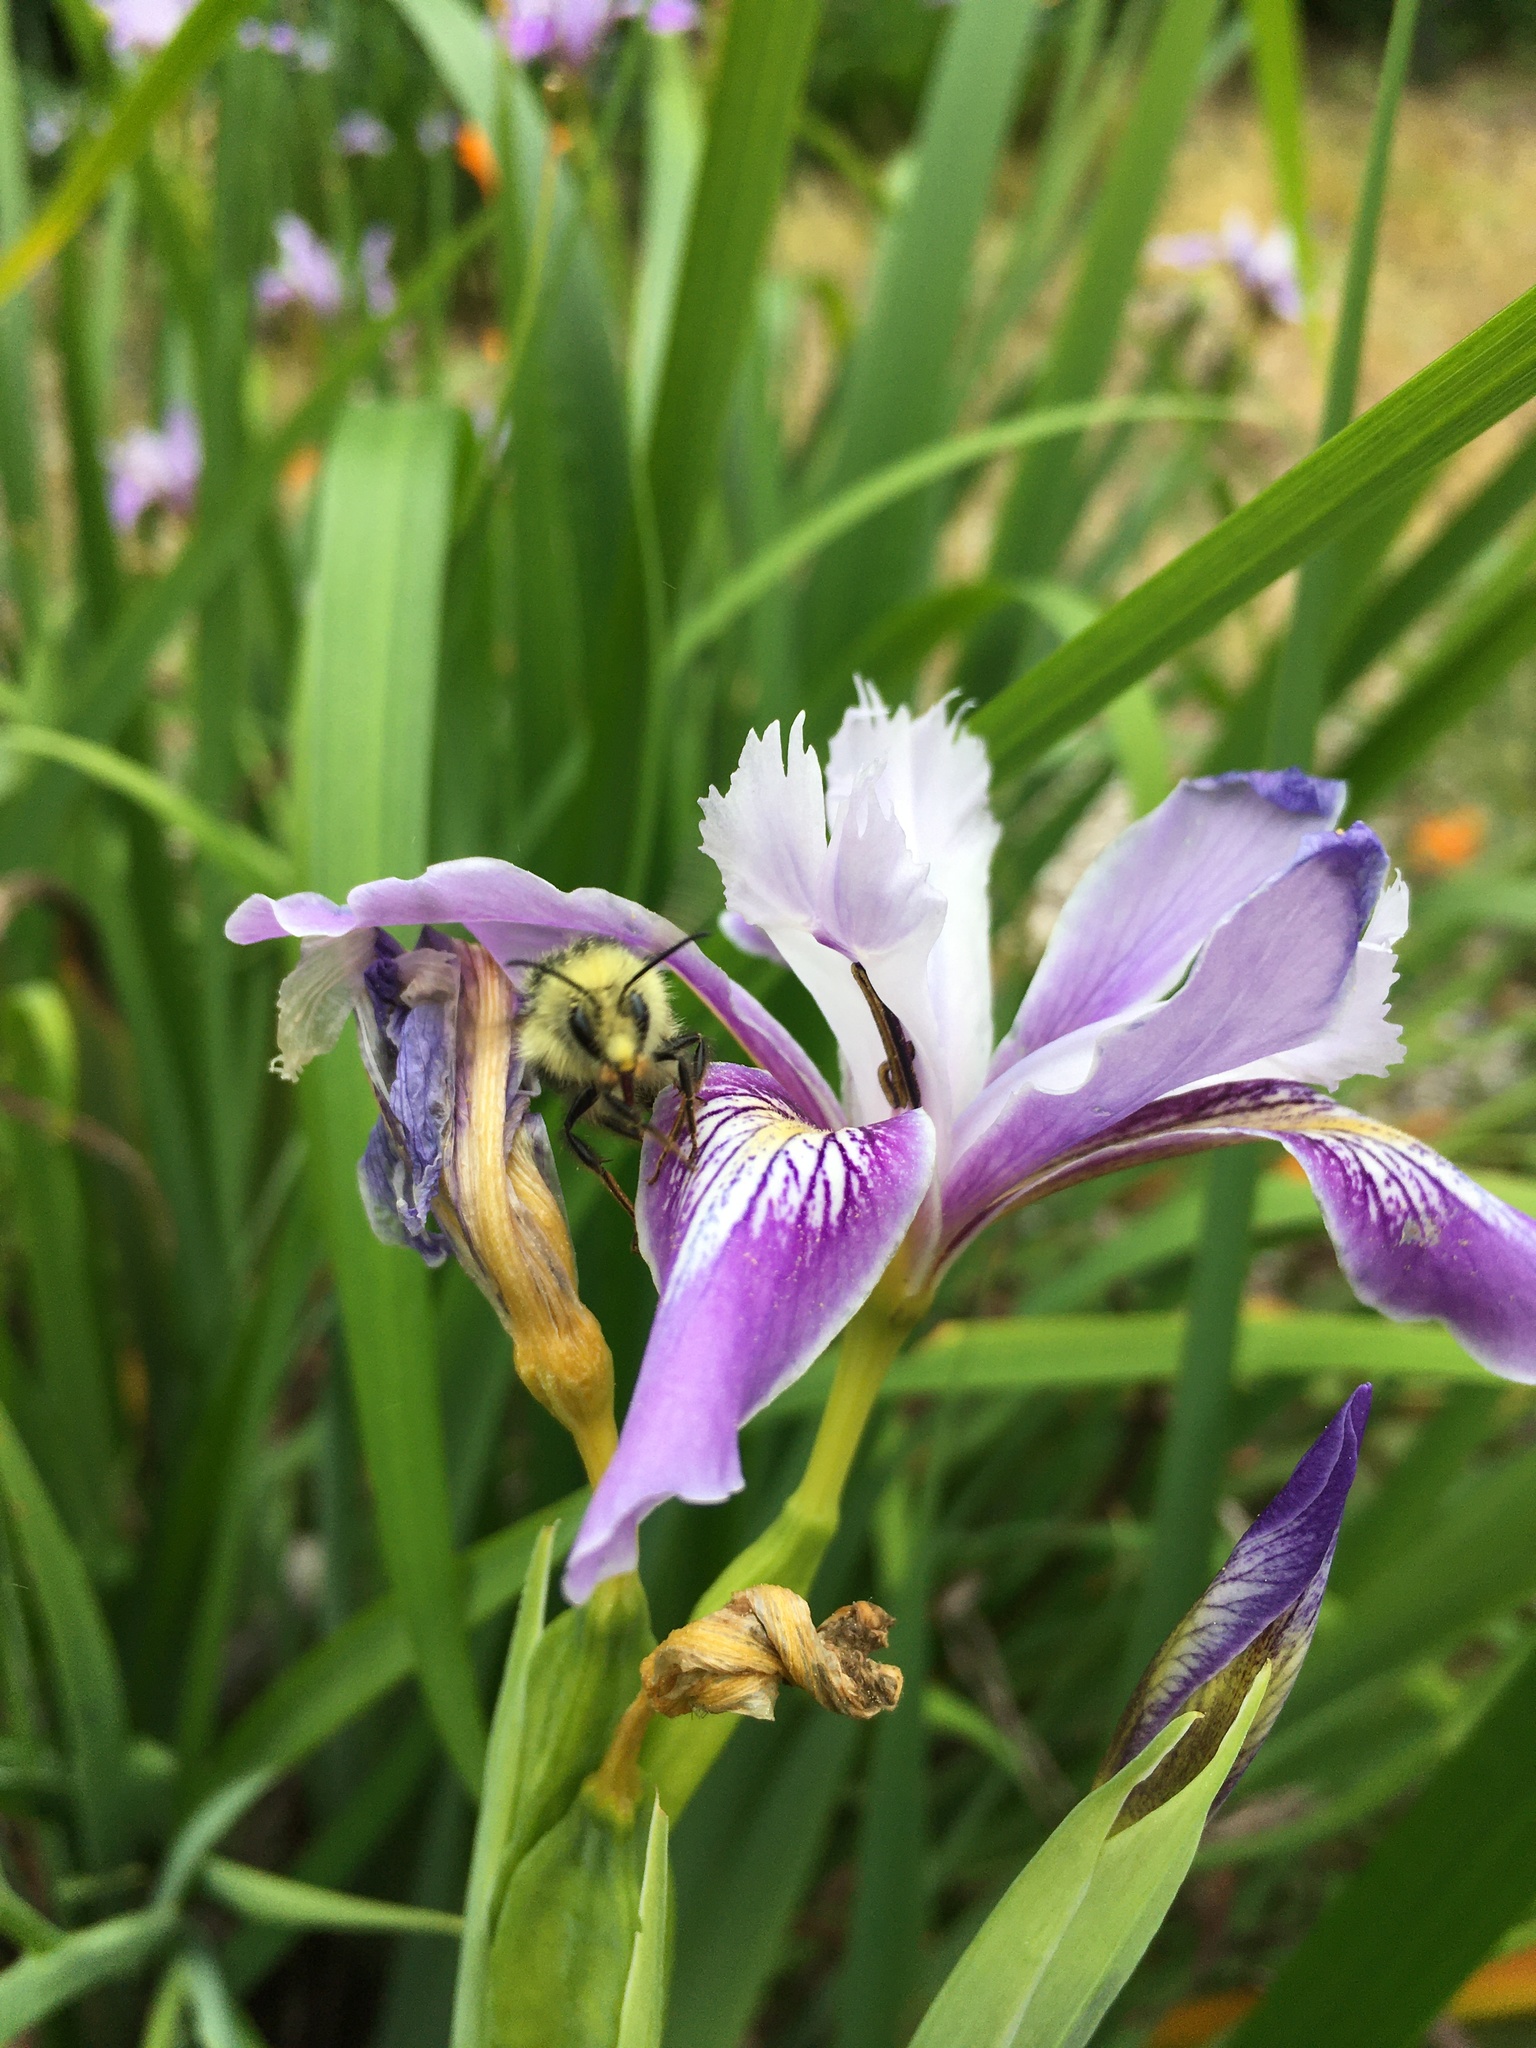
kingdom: Animalia
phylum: Arthropoda
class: Insecta
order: Hymenoptera
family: Apidae
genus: Bombus
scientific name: Bombus melanopygus
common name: Black tail bumble bee
